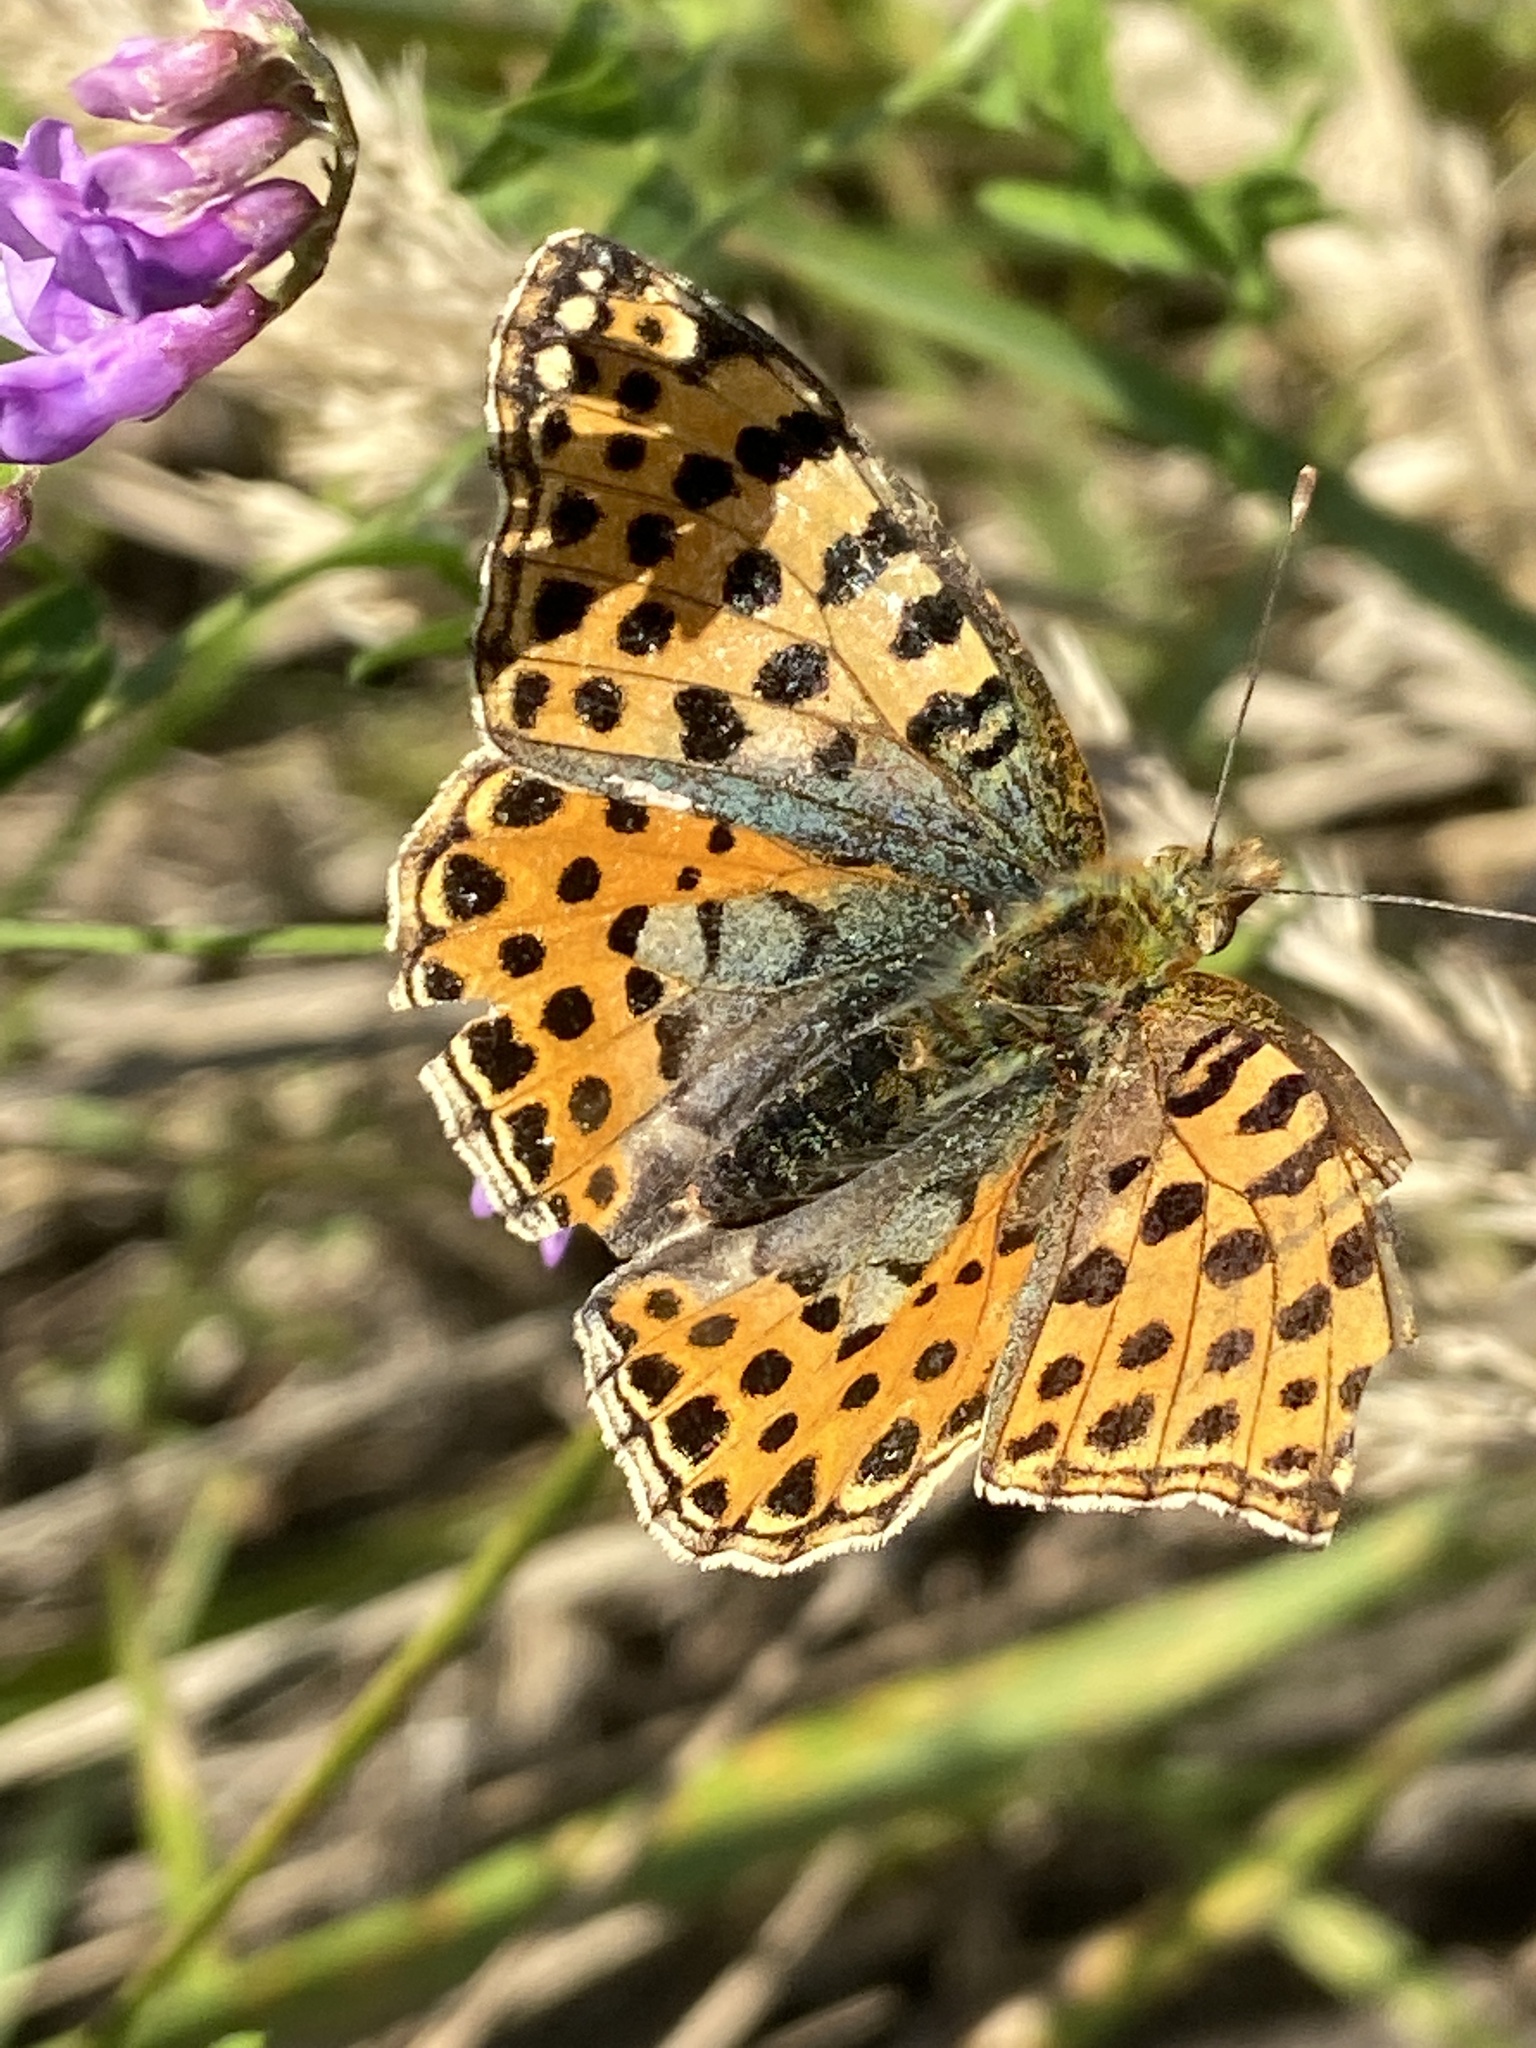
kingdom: Animalia
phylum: Arthropoda
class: Insecta
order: Lepidoptera
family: Nymphalidae
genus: Issoria
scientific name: Issoria lathonia
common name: Queen of spain fritillary
